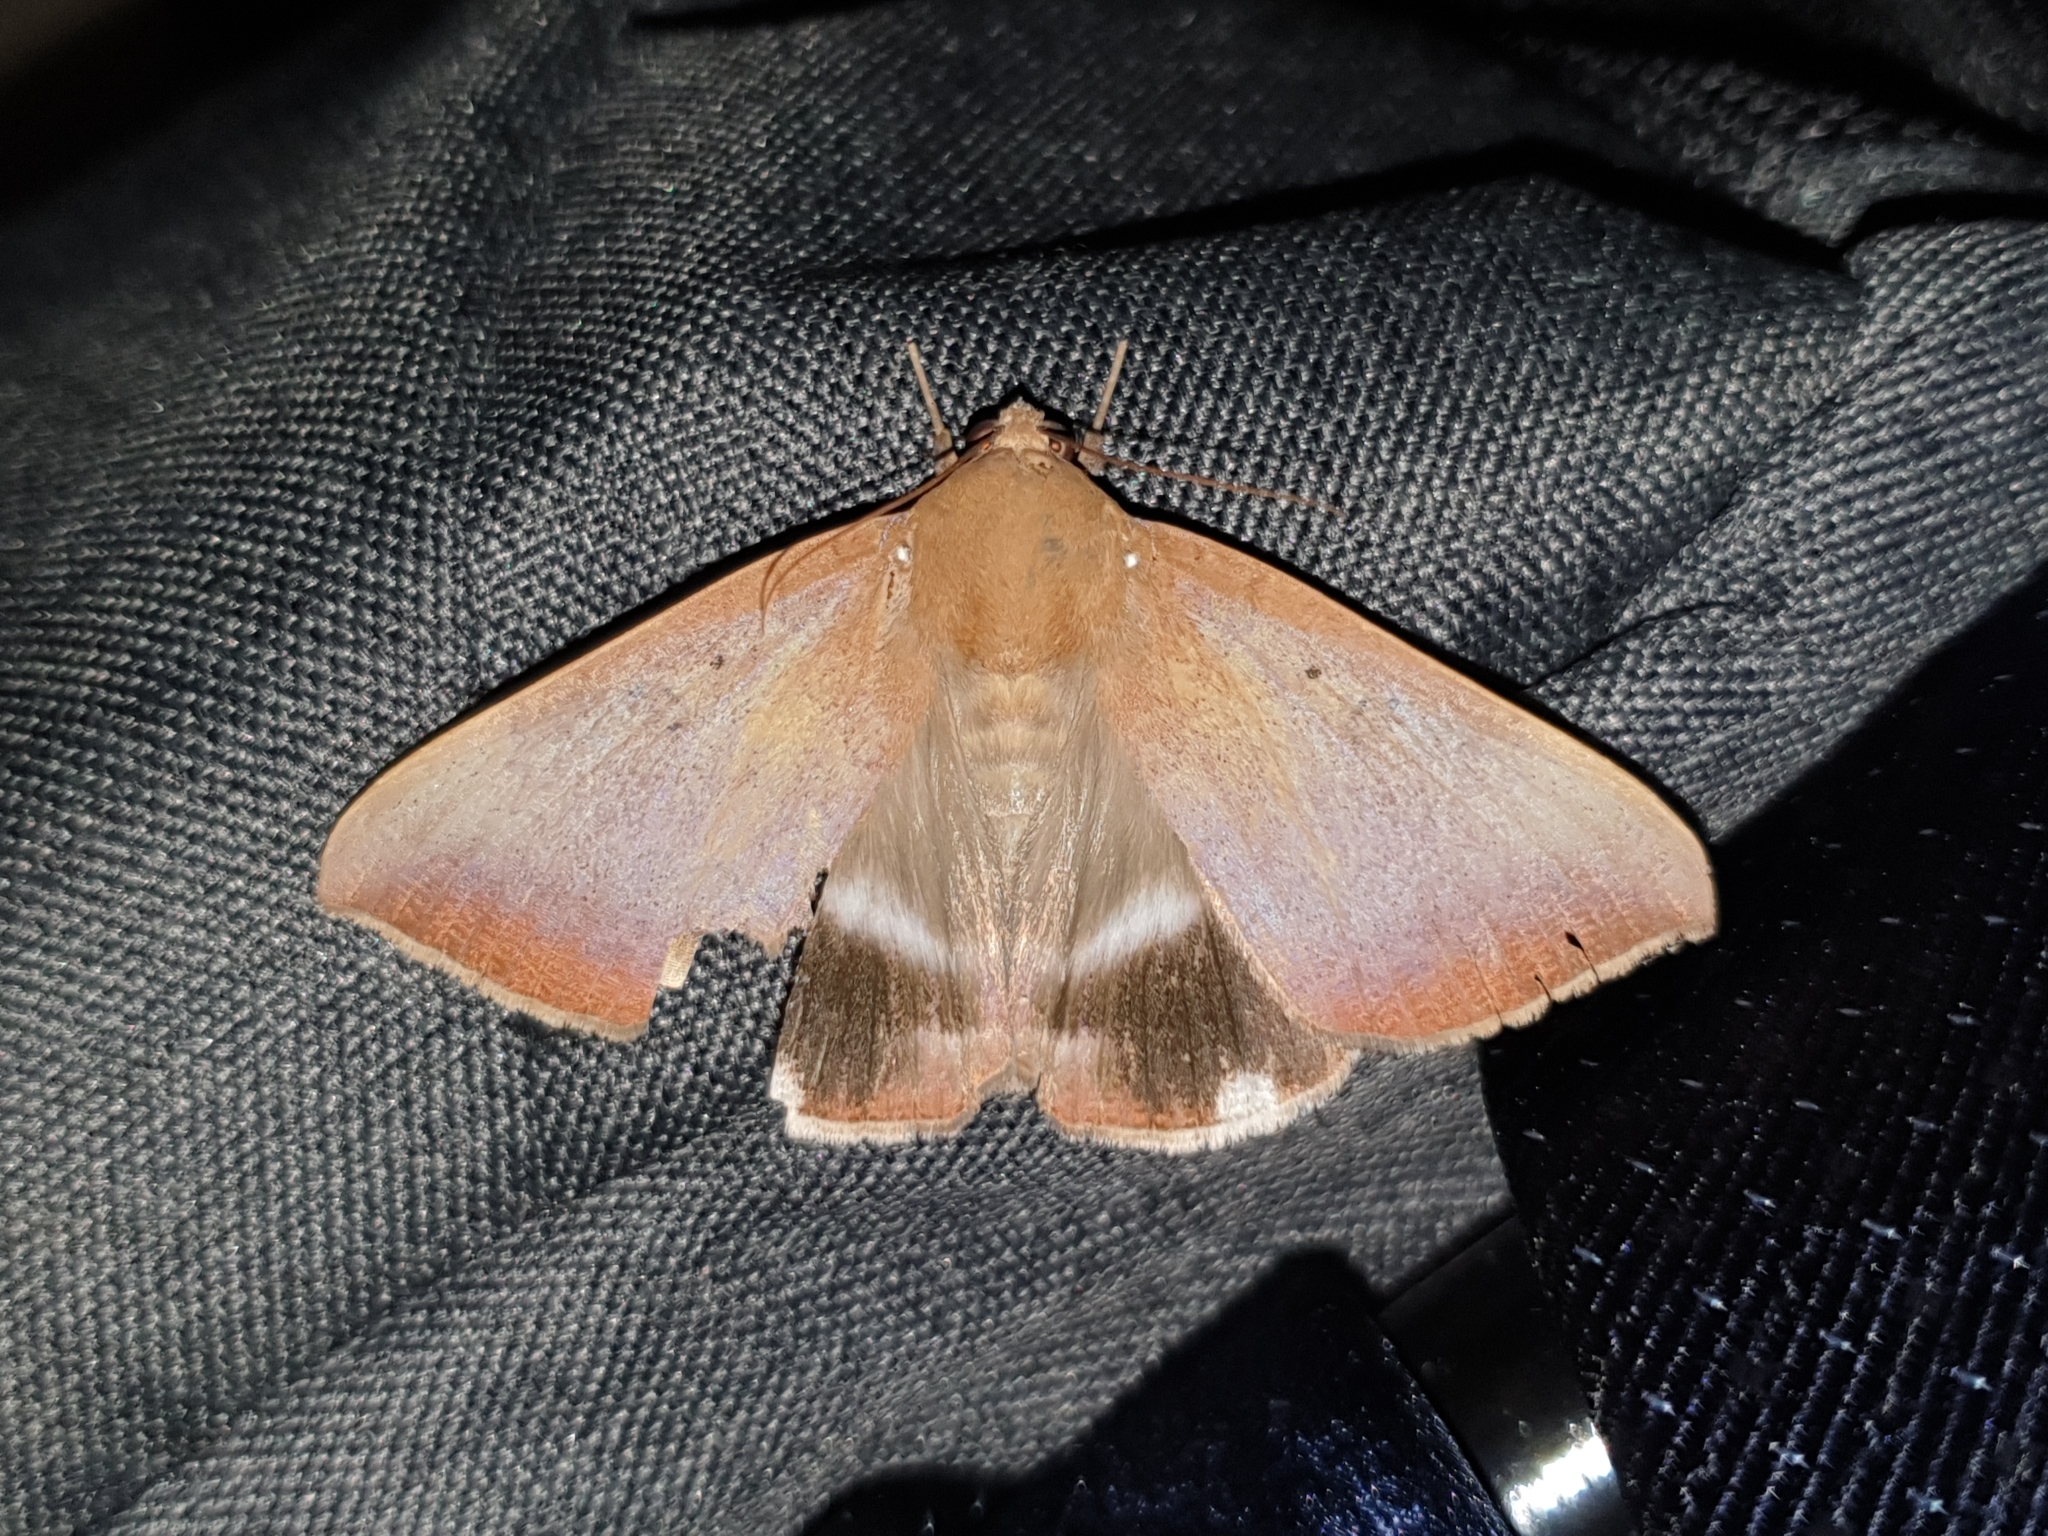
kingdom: Animalia
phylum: Arthropoda
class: Insecta
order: Lepidoptera
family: Erebidae
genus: Achaea
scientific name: Achaea serva
